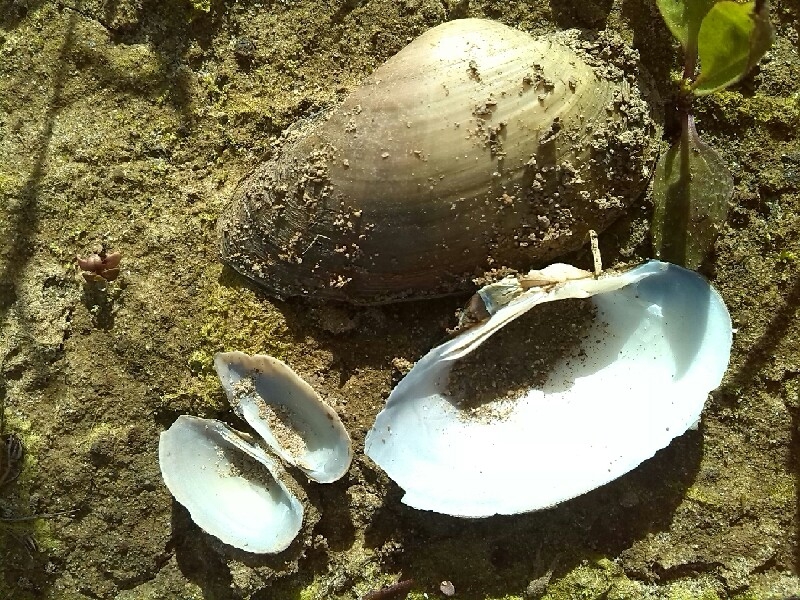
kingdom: Animalia
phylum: Mollusca
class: Bivalvia
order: Unionida
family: Unionidae
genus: Unio
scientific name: Unio tumidus
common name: Swollen river mussel
